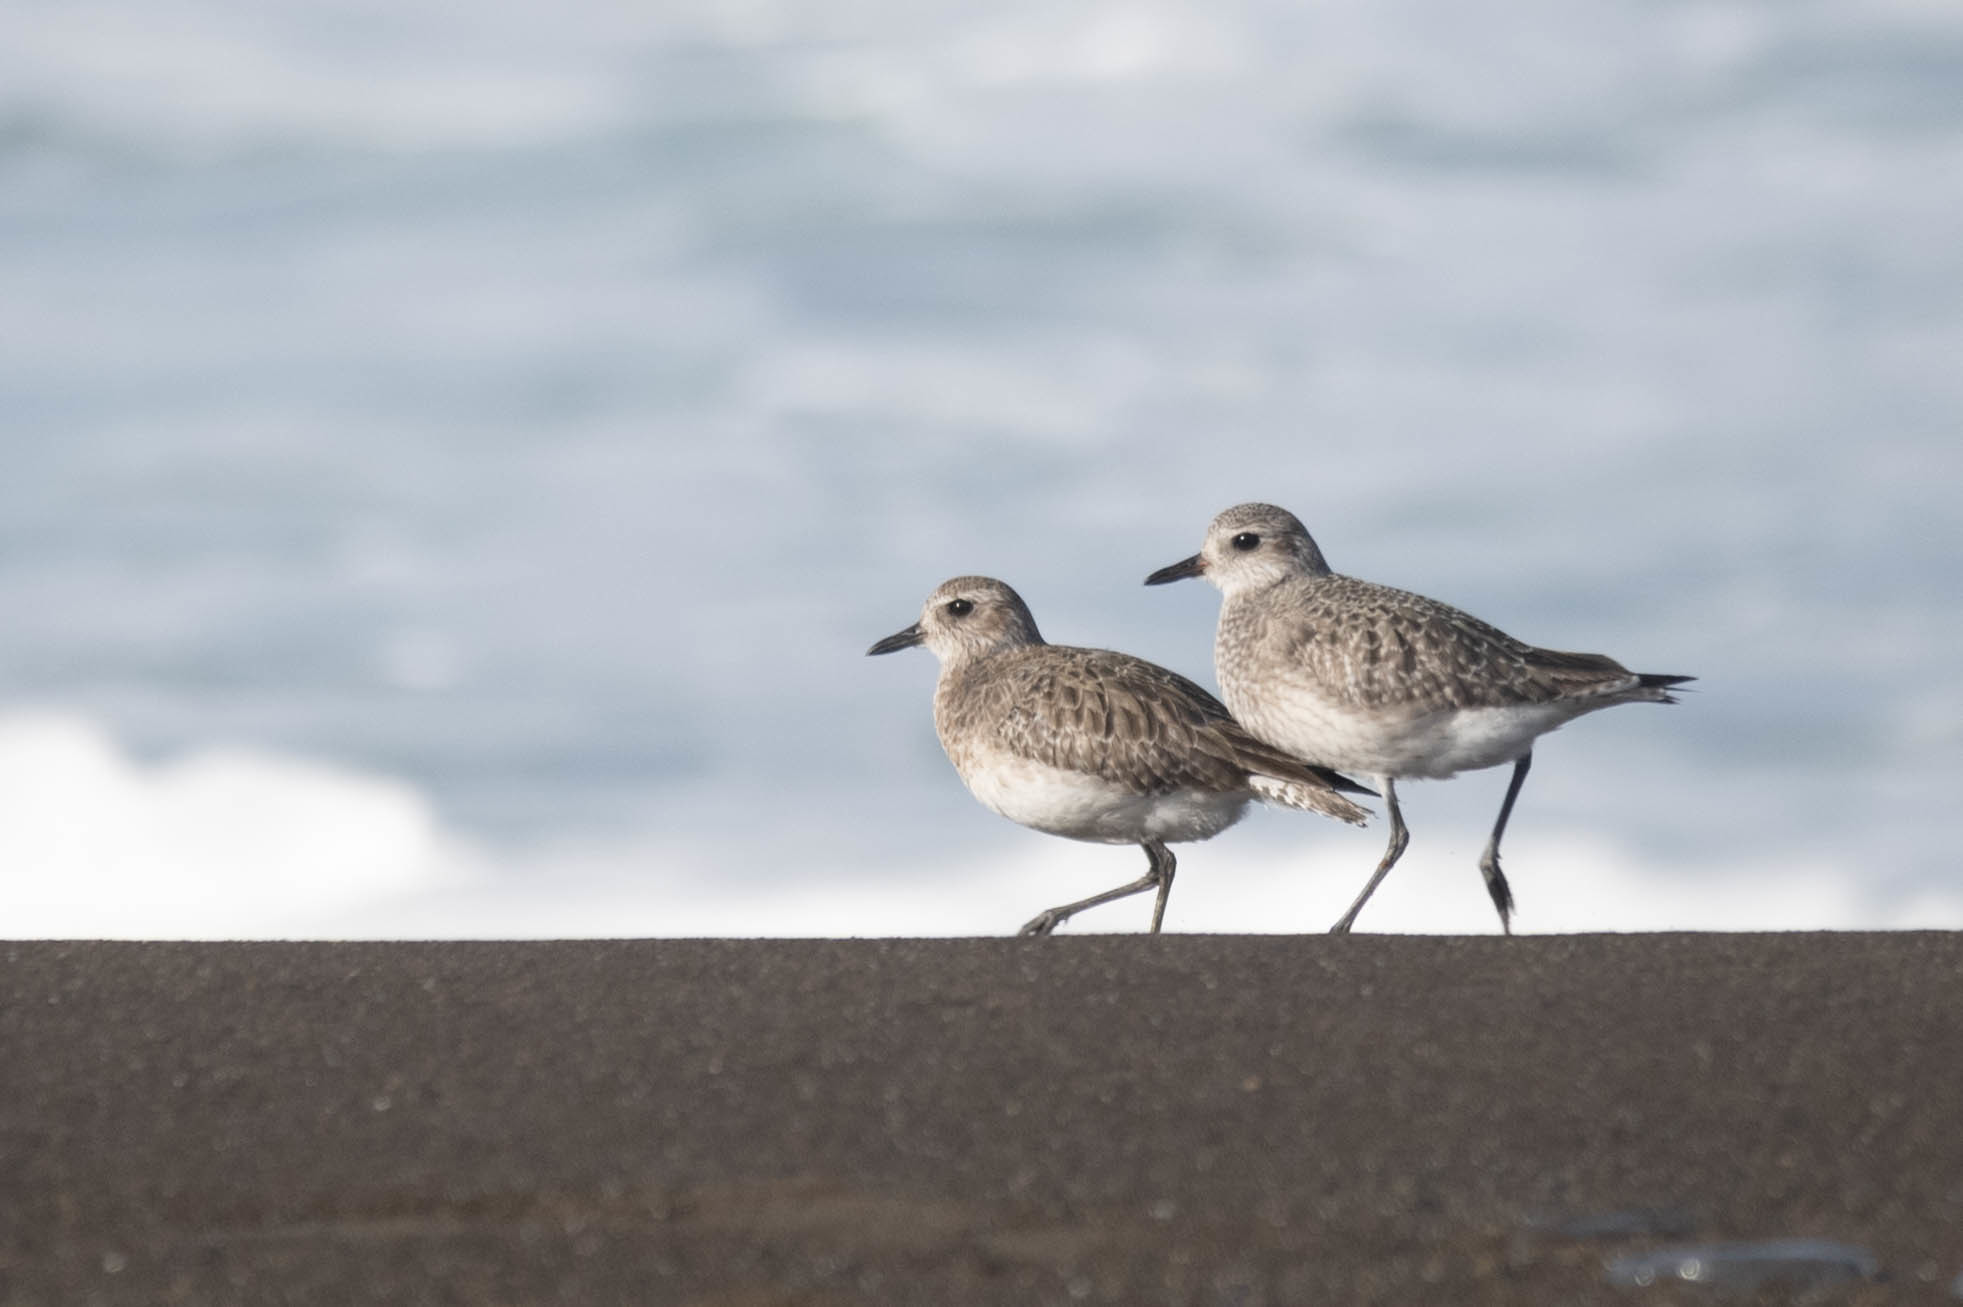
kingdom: Animalia
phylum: Chordata
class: Aves
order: Charadriiformes
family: Charadriidae
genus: Pluvialis
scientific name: Pluvialis squatarola
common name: Grey plover
